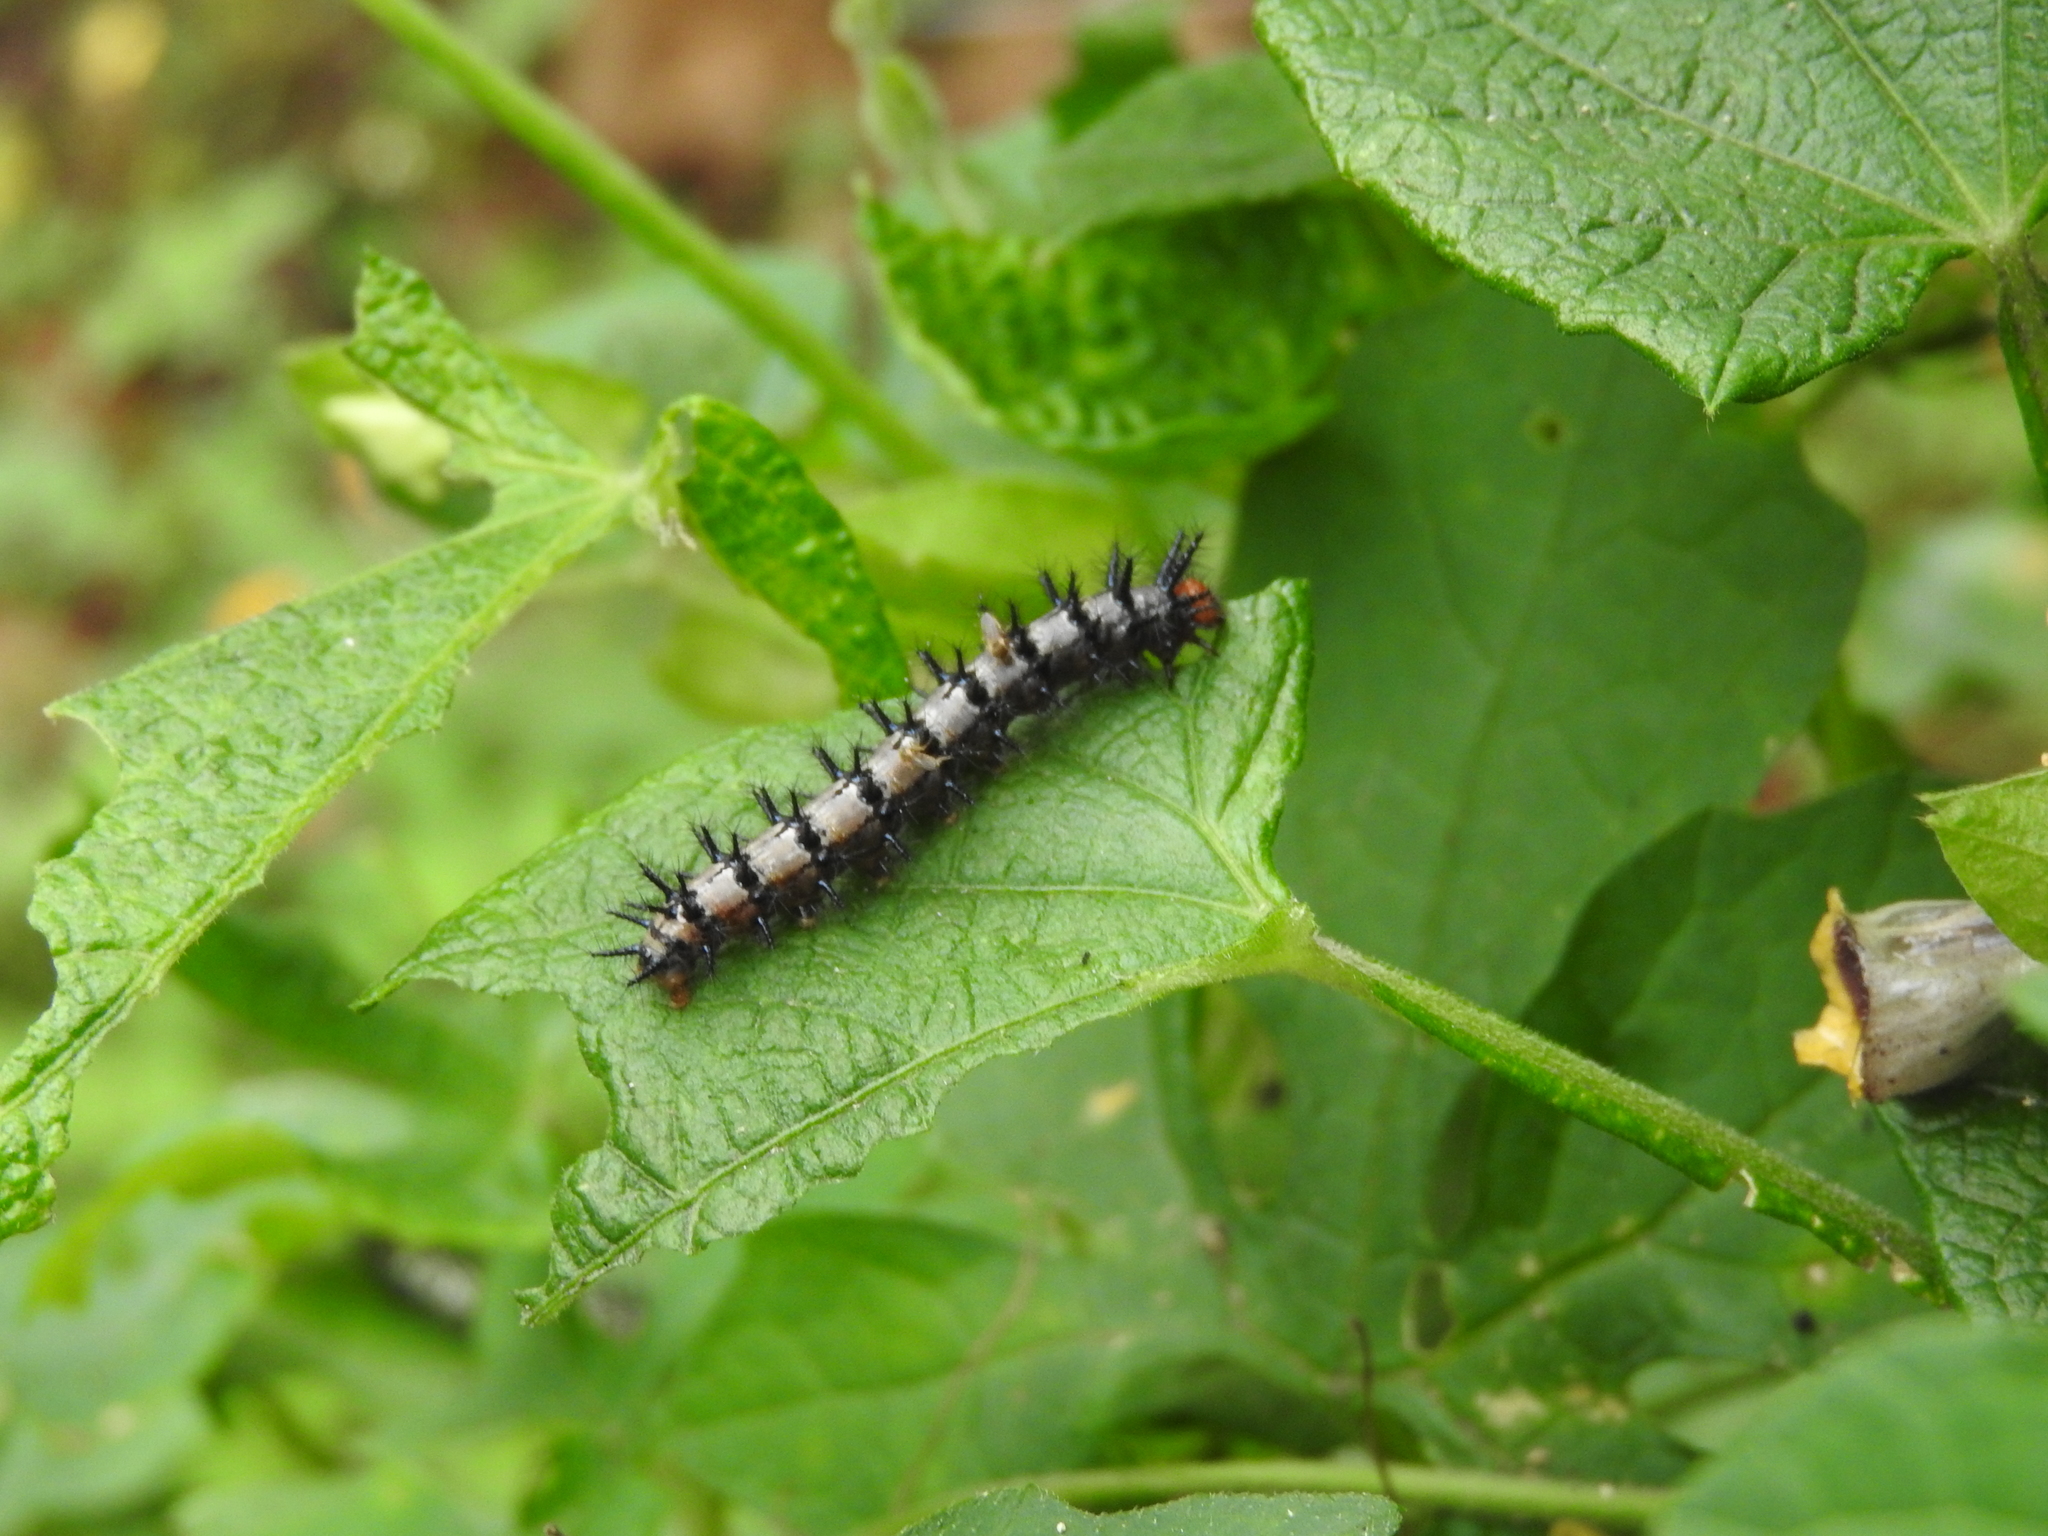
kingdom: Animalia
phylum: Arthropoda
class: Insecta
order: Lepidoptera
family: Nymphalidae
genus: Chlosyne
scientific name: Chlosyne janais
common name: Crimson patch
